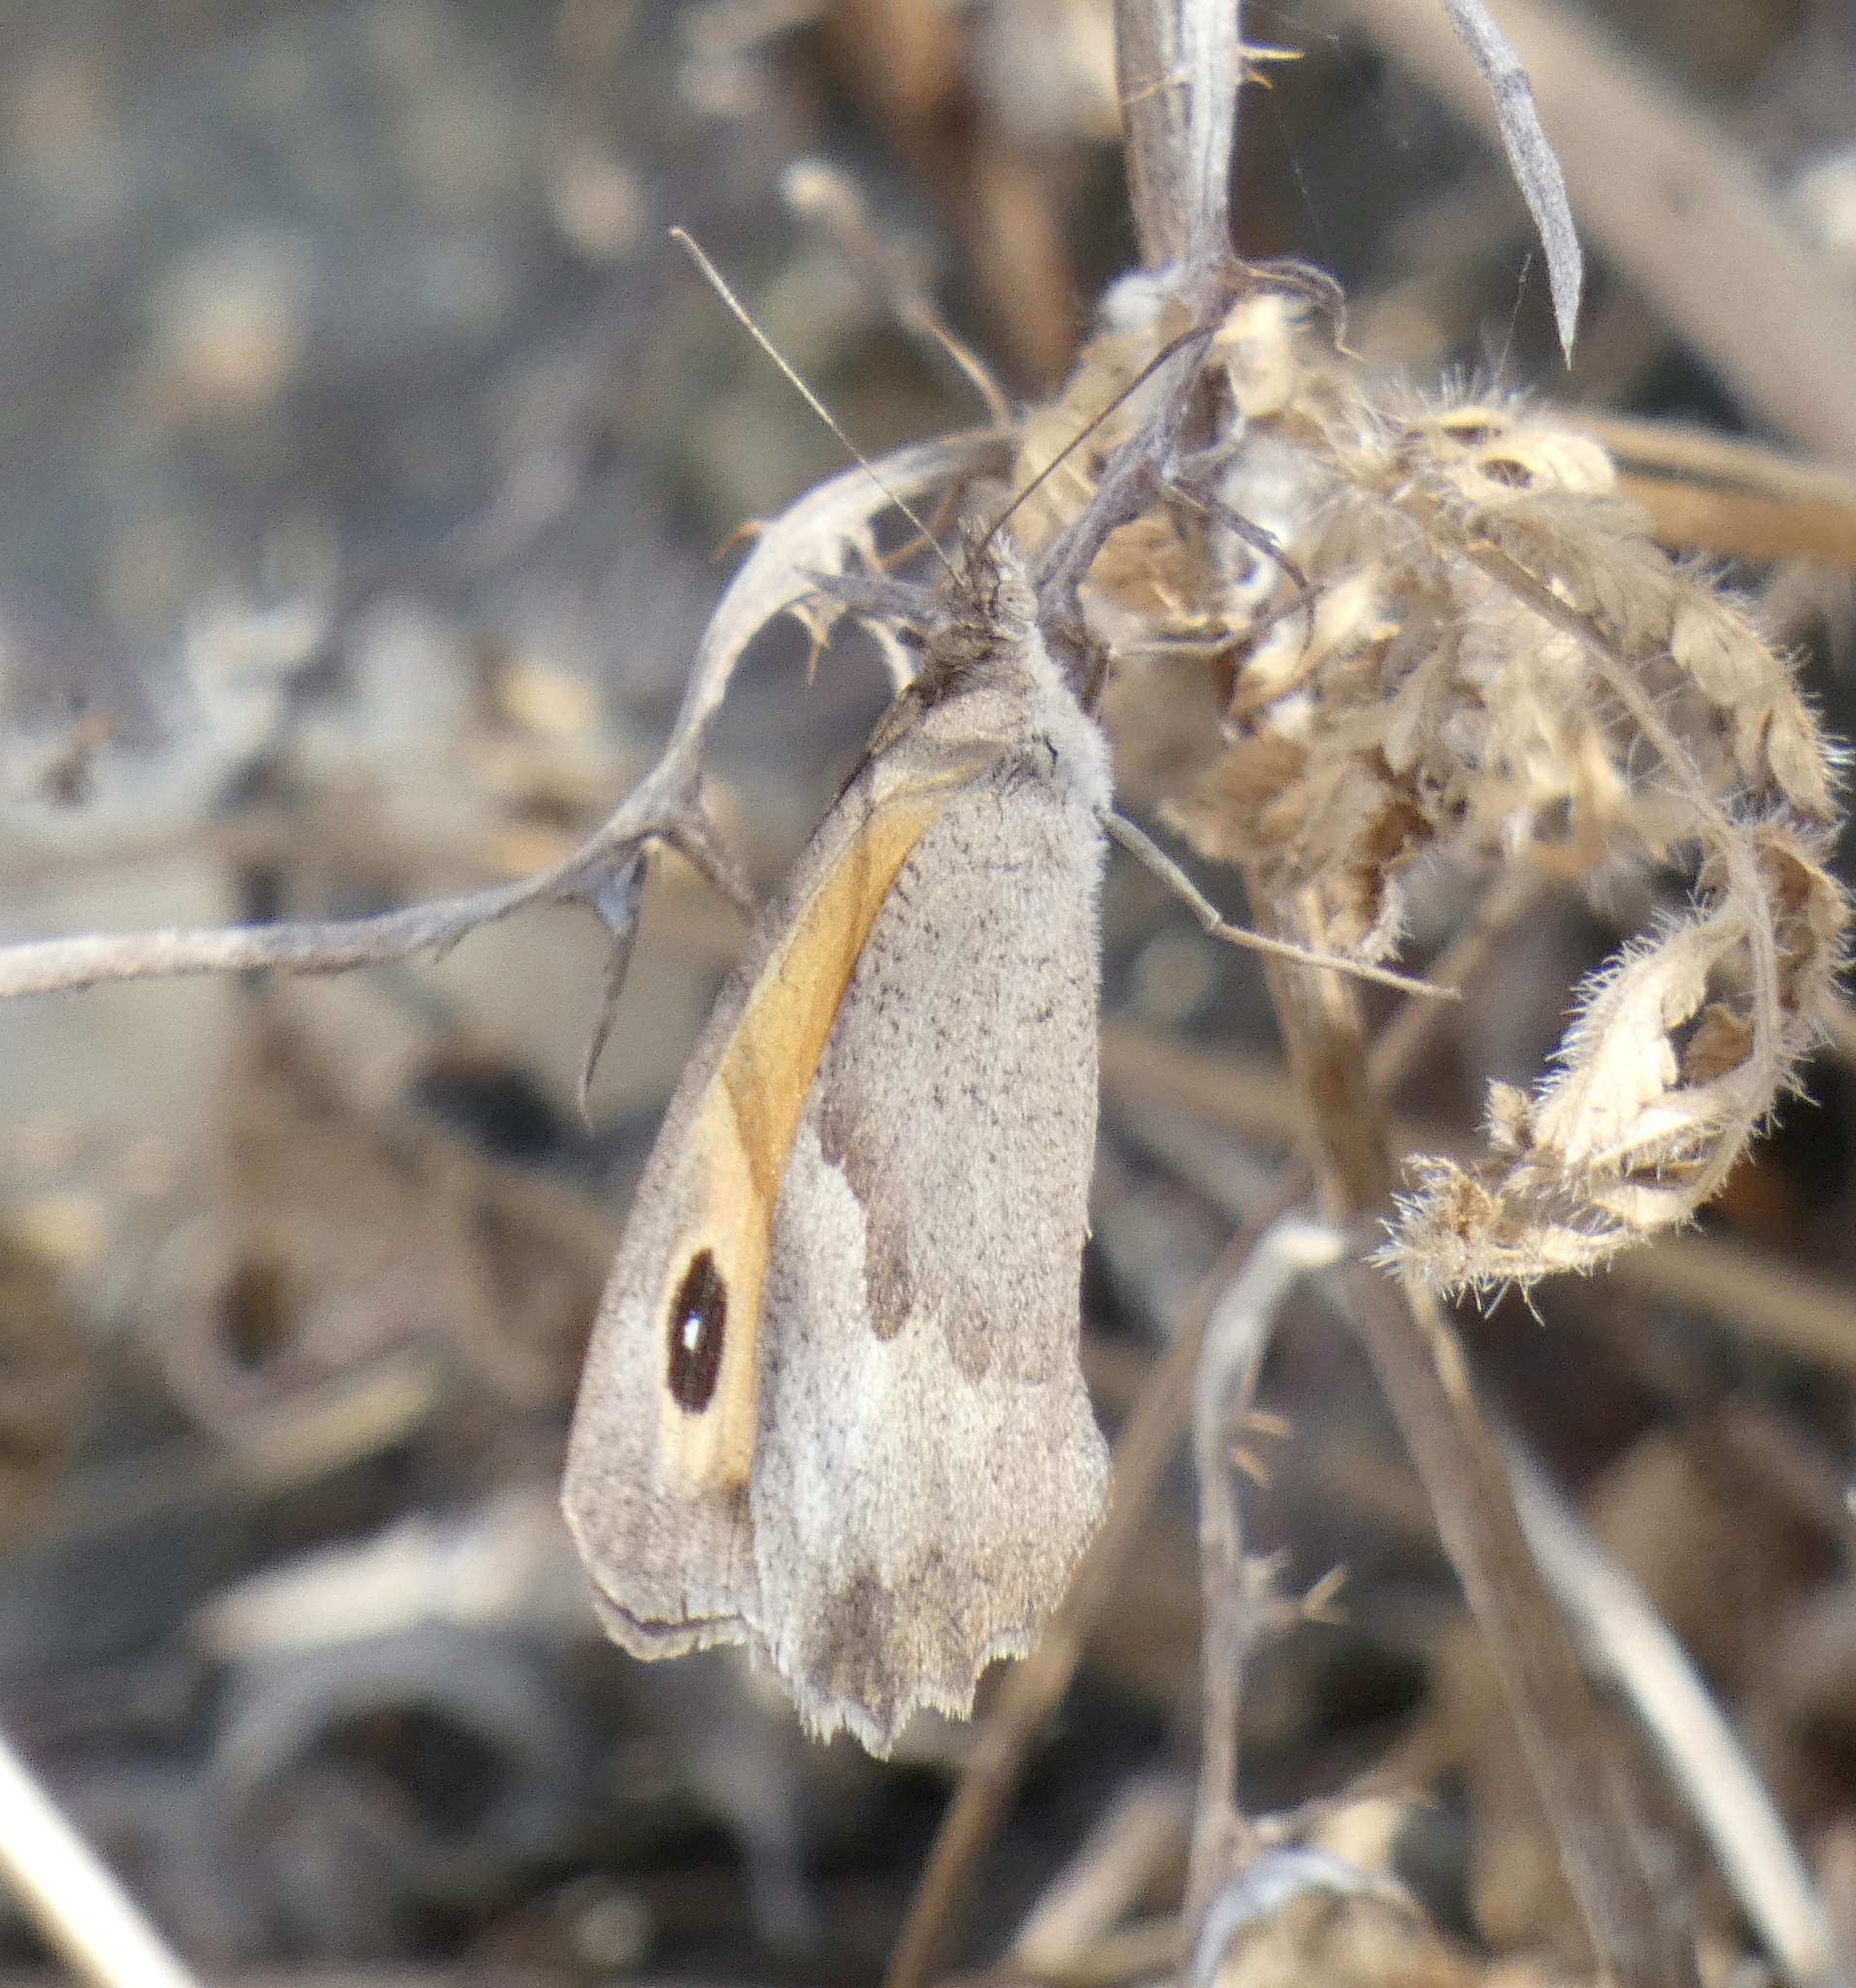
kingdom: Animalia
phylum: Arthropoda
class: Insecta
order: Lepidoptera
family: Nymphalidae
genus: Maniola
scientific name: Maniola jurtina
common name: Meadow brown
